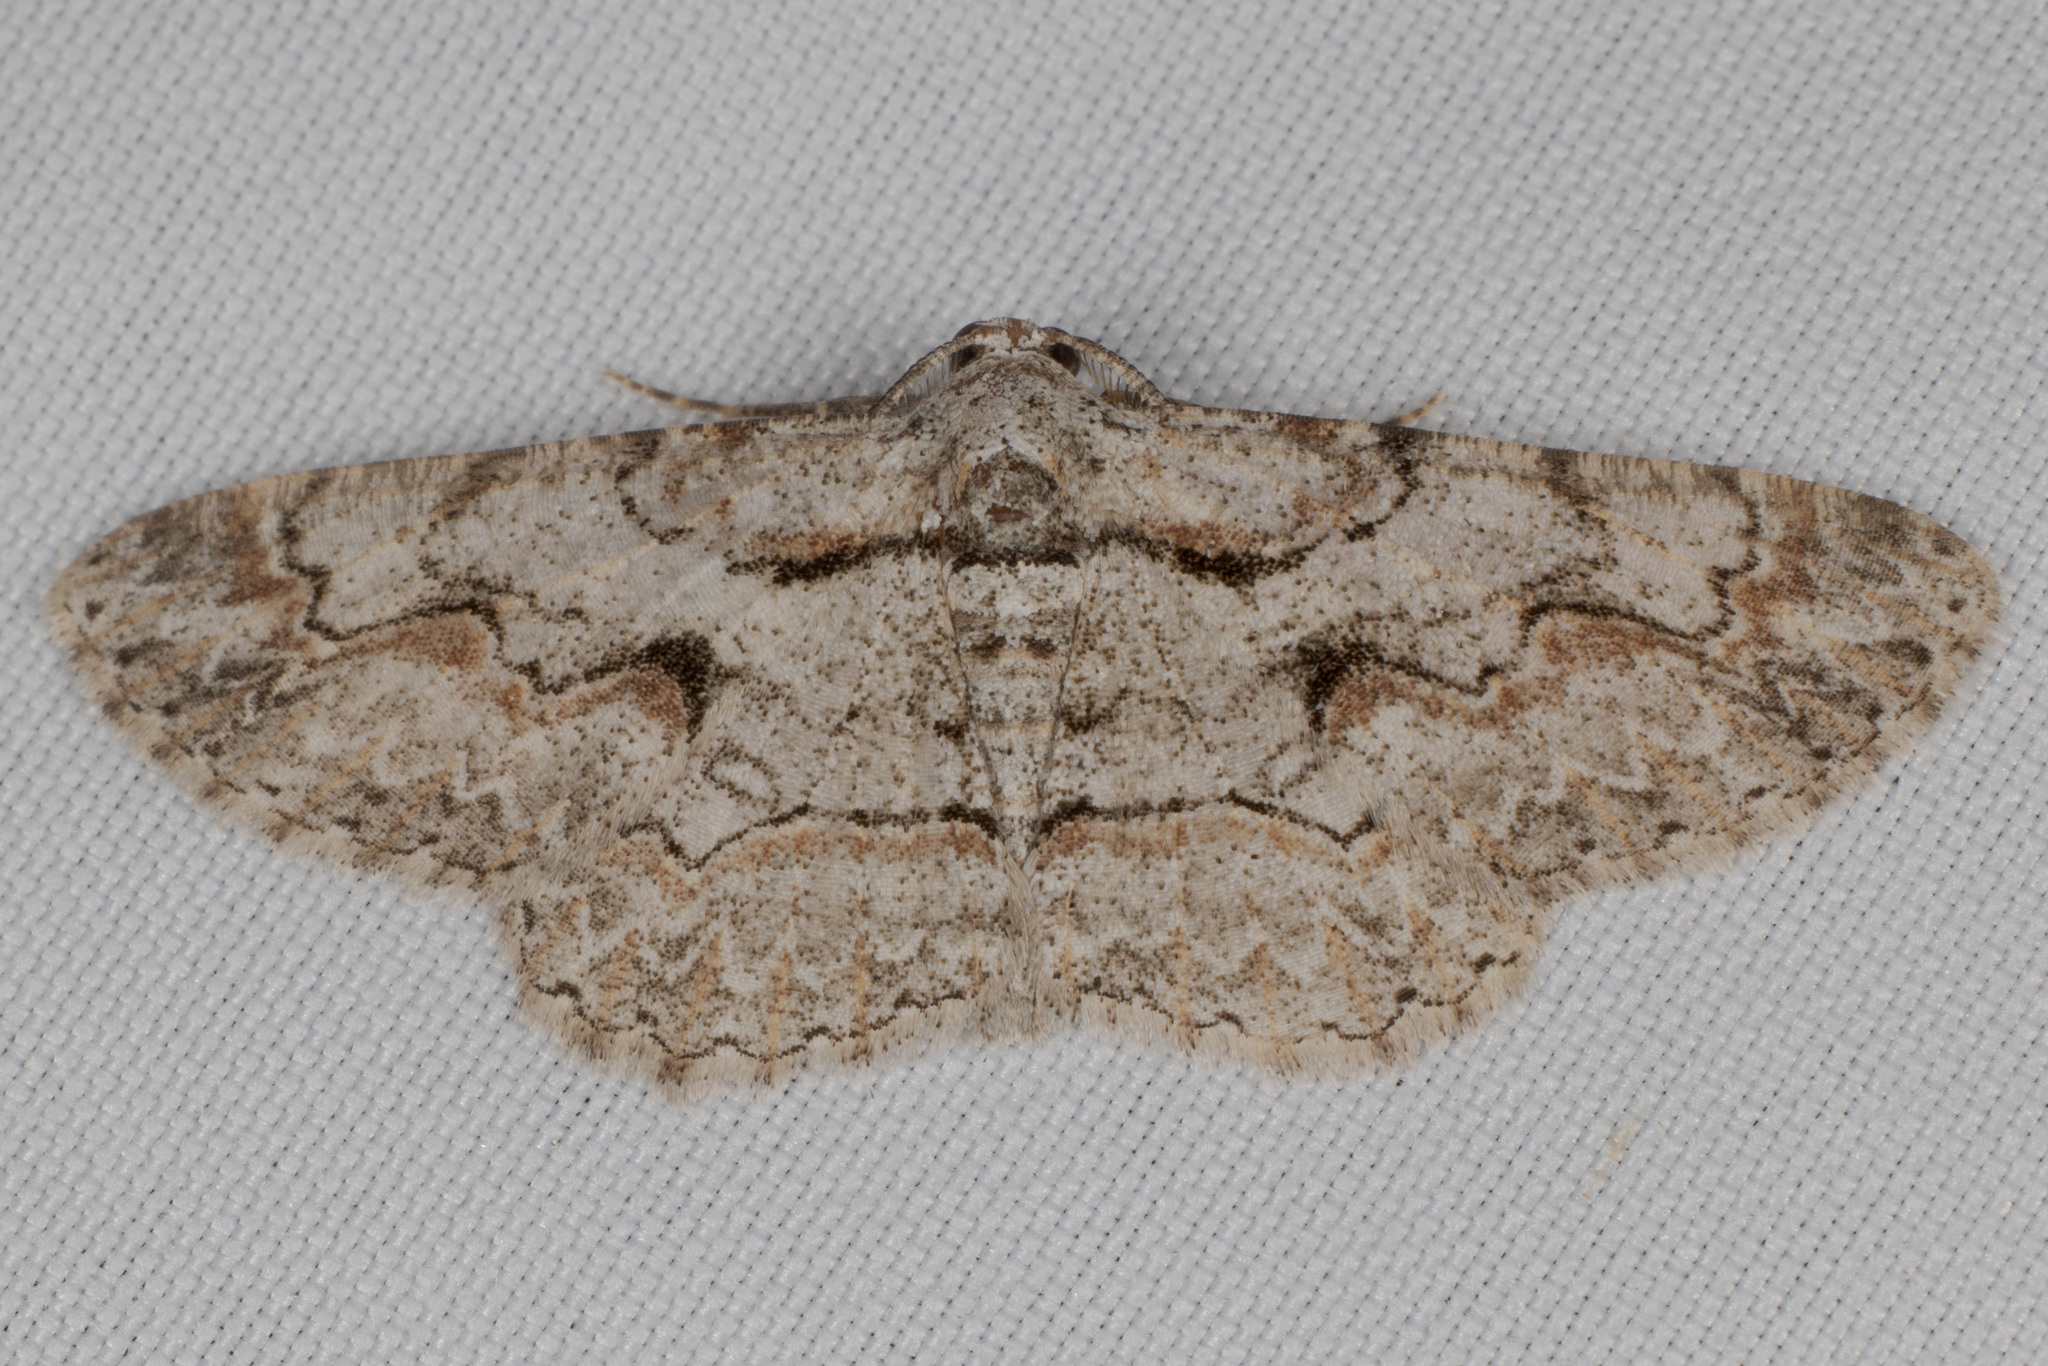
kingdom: Animalia
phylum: Arthropoda
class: Insecta
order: Lepidoptera
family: Geometridae
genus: Iridopsis
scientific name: Iridopsis defectaria
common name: Brown-shaded gray
